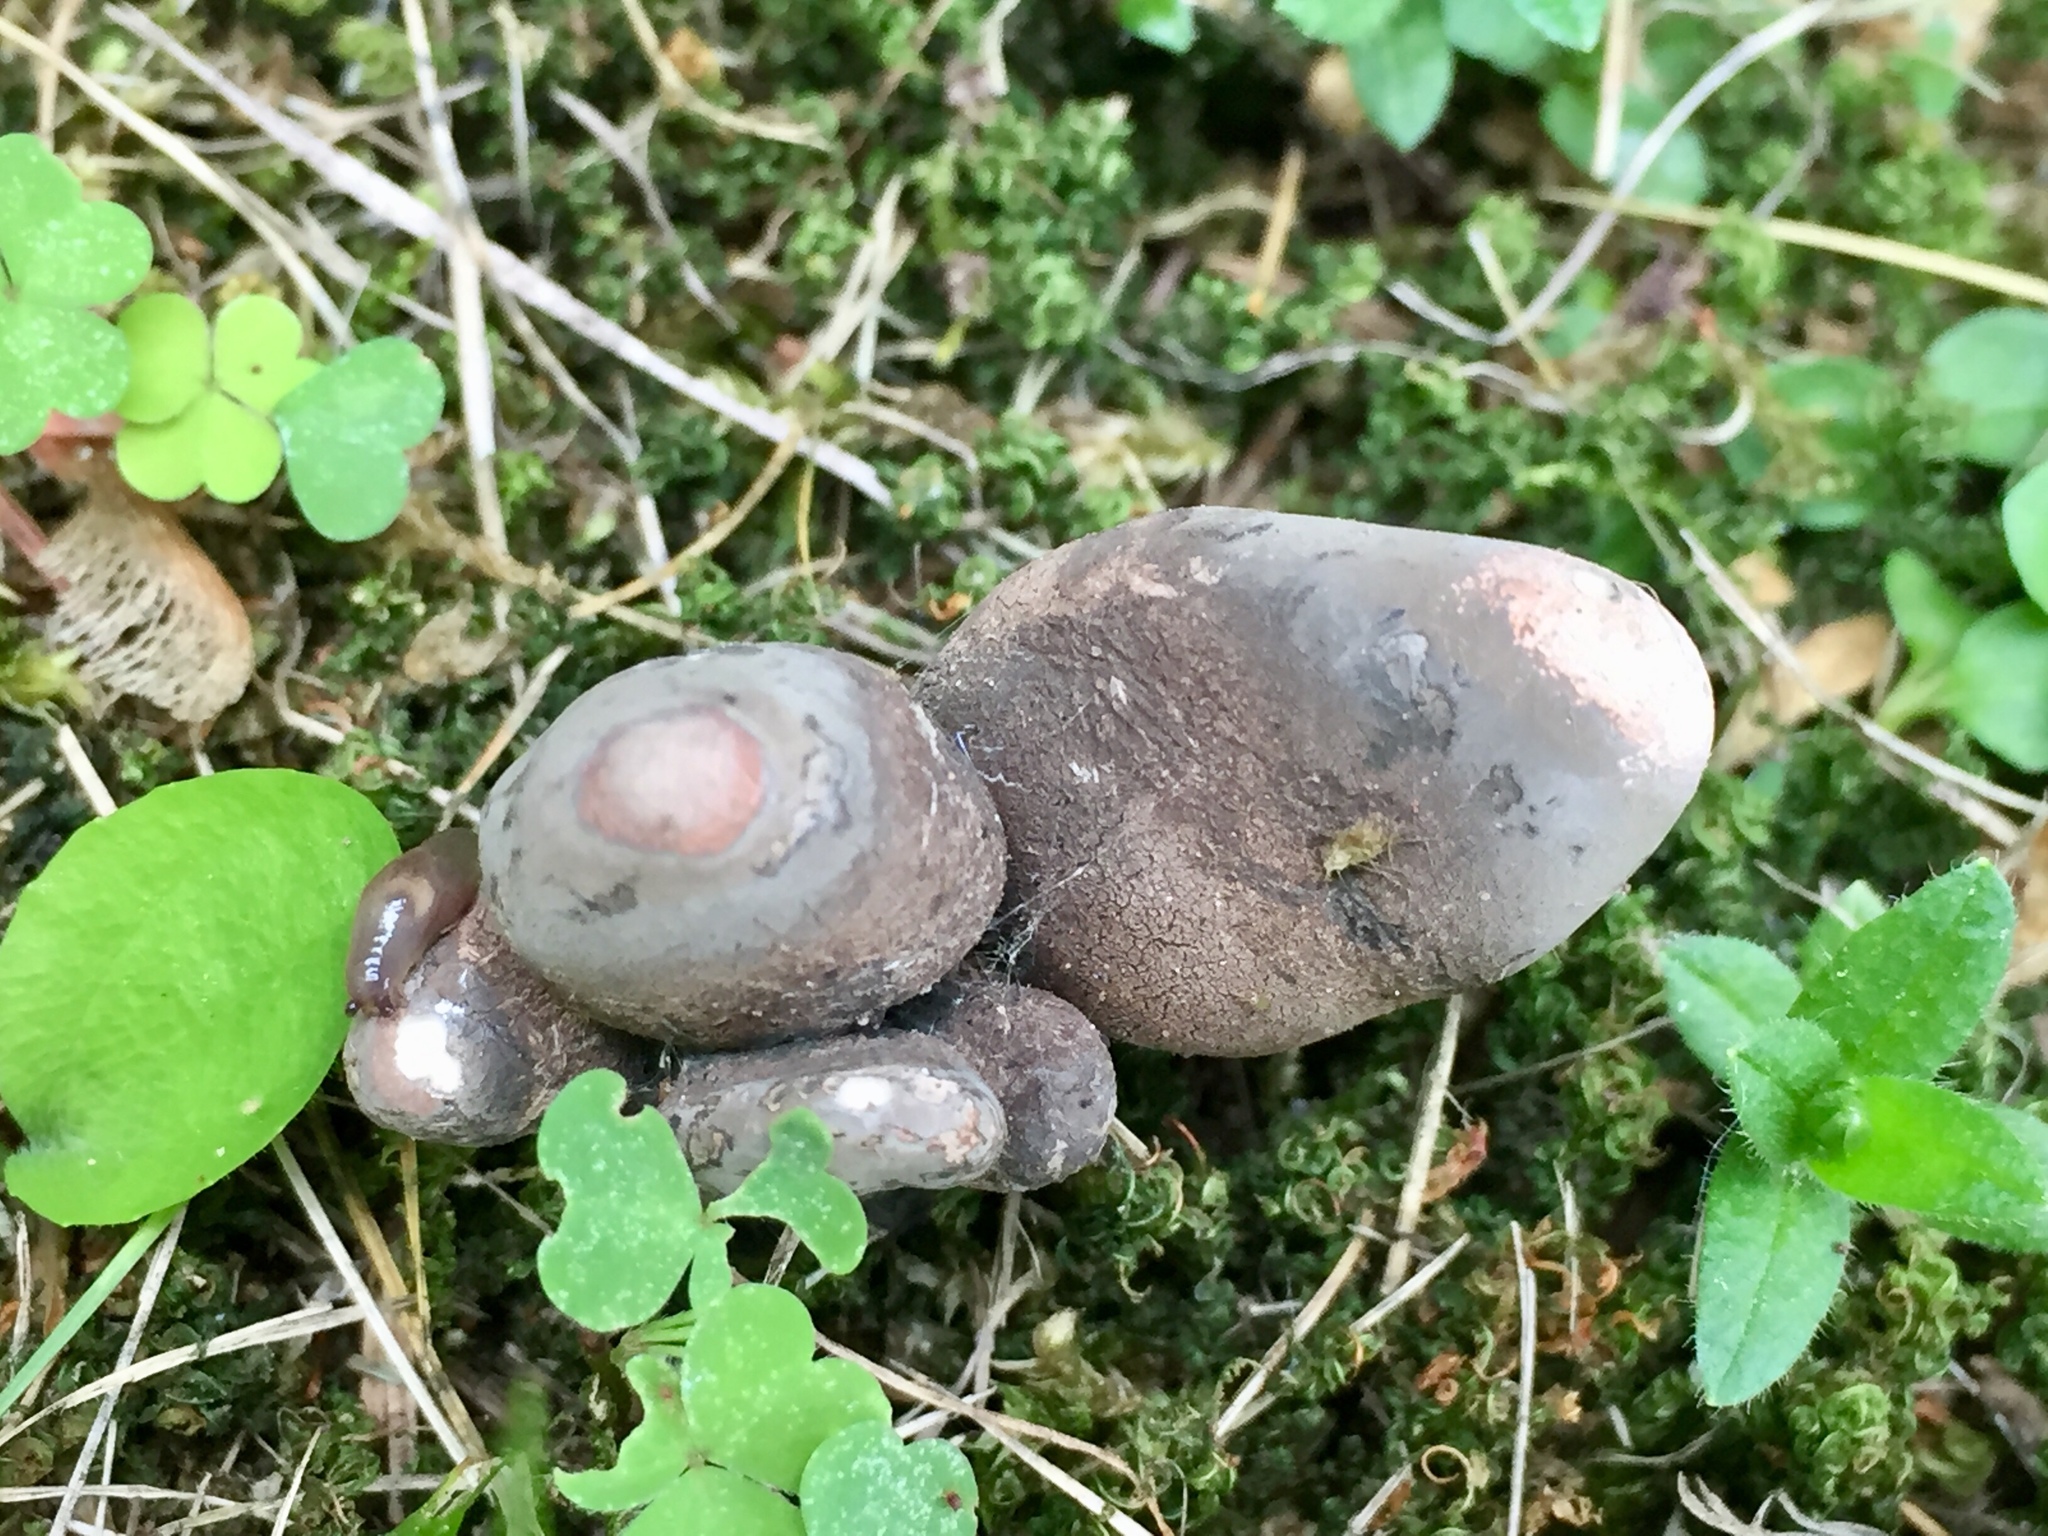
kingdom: Fungi
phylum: Ascomycota
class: Sordariomycetes
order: Xylariales
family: Xylariaceae
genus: Xylaria
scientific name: Xylaria polymorpha
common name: Dead man's fingers
